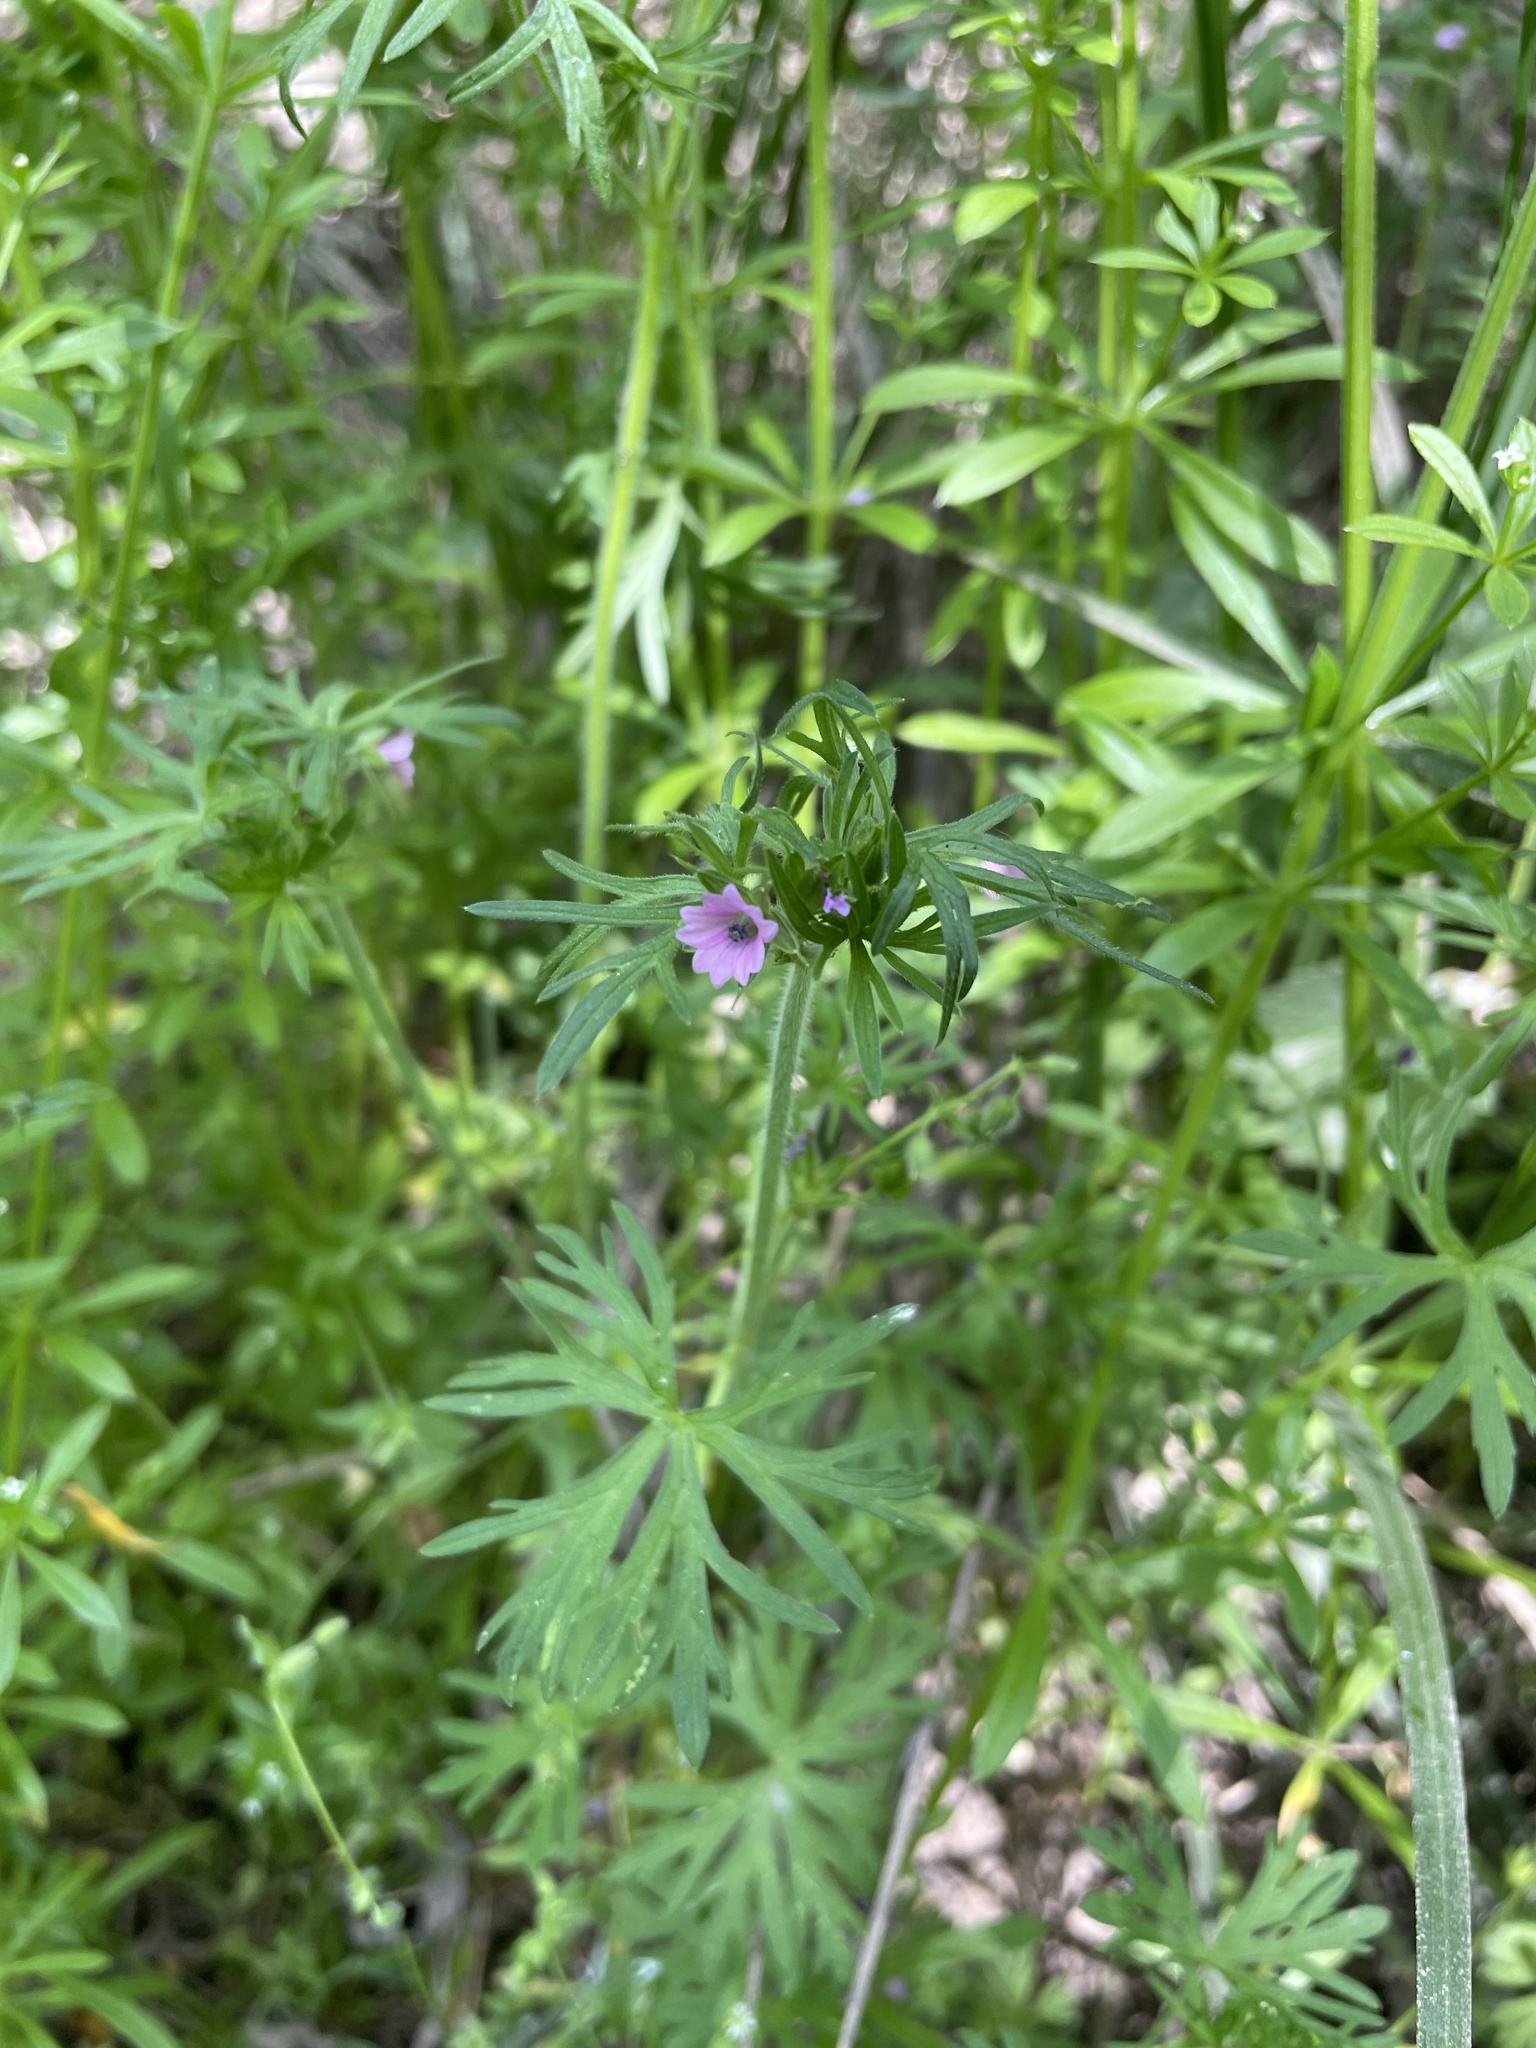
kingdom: Plantae
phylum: Tracheophyta
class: Magnoliopsida
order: Geraniales
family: Geraniaceae
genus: Geranium
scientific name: Geranium dissectum
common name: Cut-leaved crane's-bill
